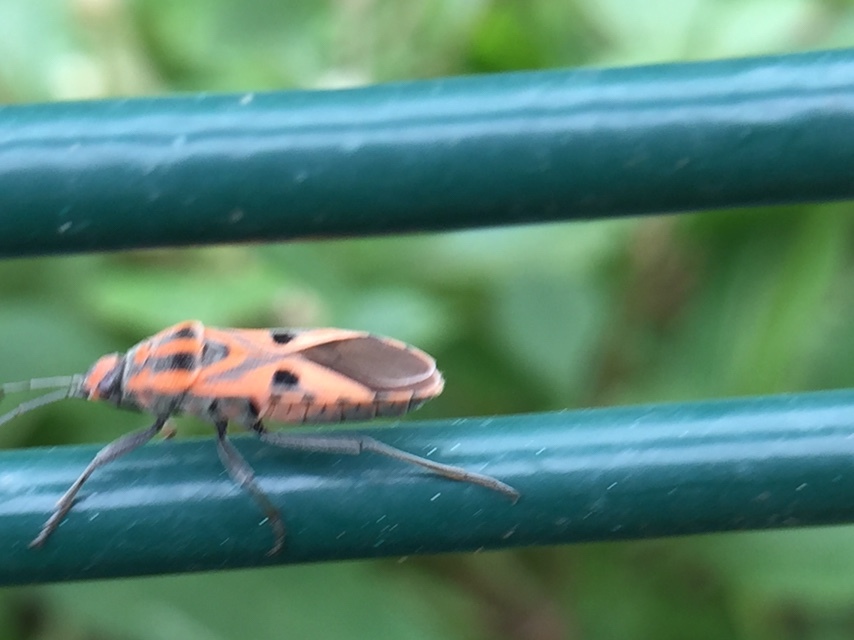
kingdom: Animalia
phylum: Arthropoda
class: Insecta
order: Hemiptera
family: Lygaeidae
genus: Spilostethus
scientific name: Spilostethus hospes
